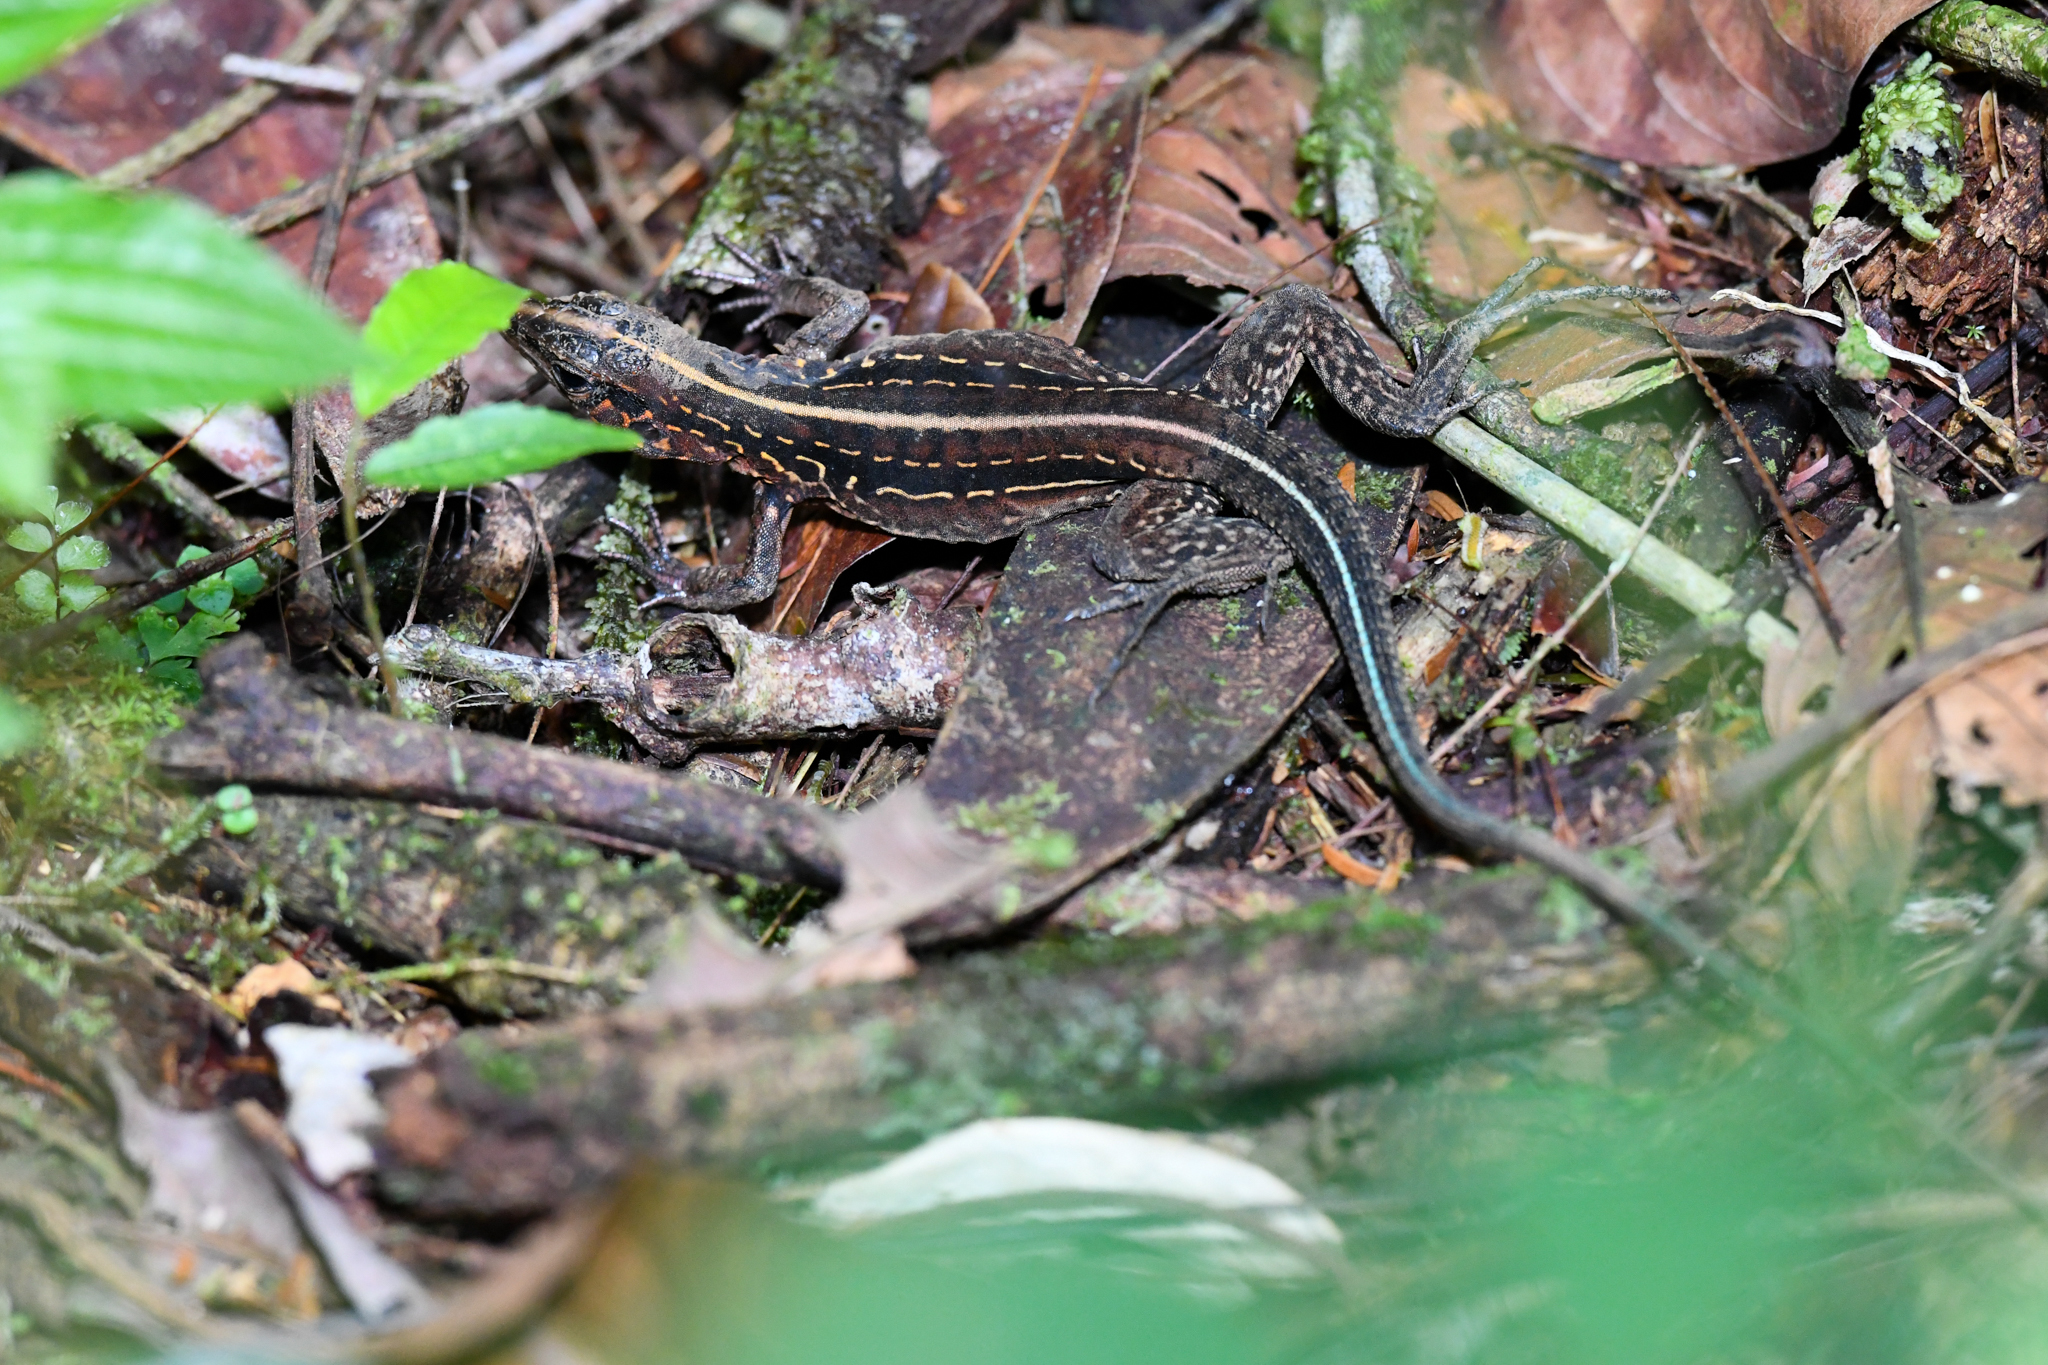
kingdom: Animalia
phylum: Chordata
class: Squamata
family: Teiidae
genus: Holcosus
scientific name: Holcosus festivus
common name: Middle american ameiva
